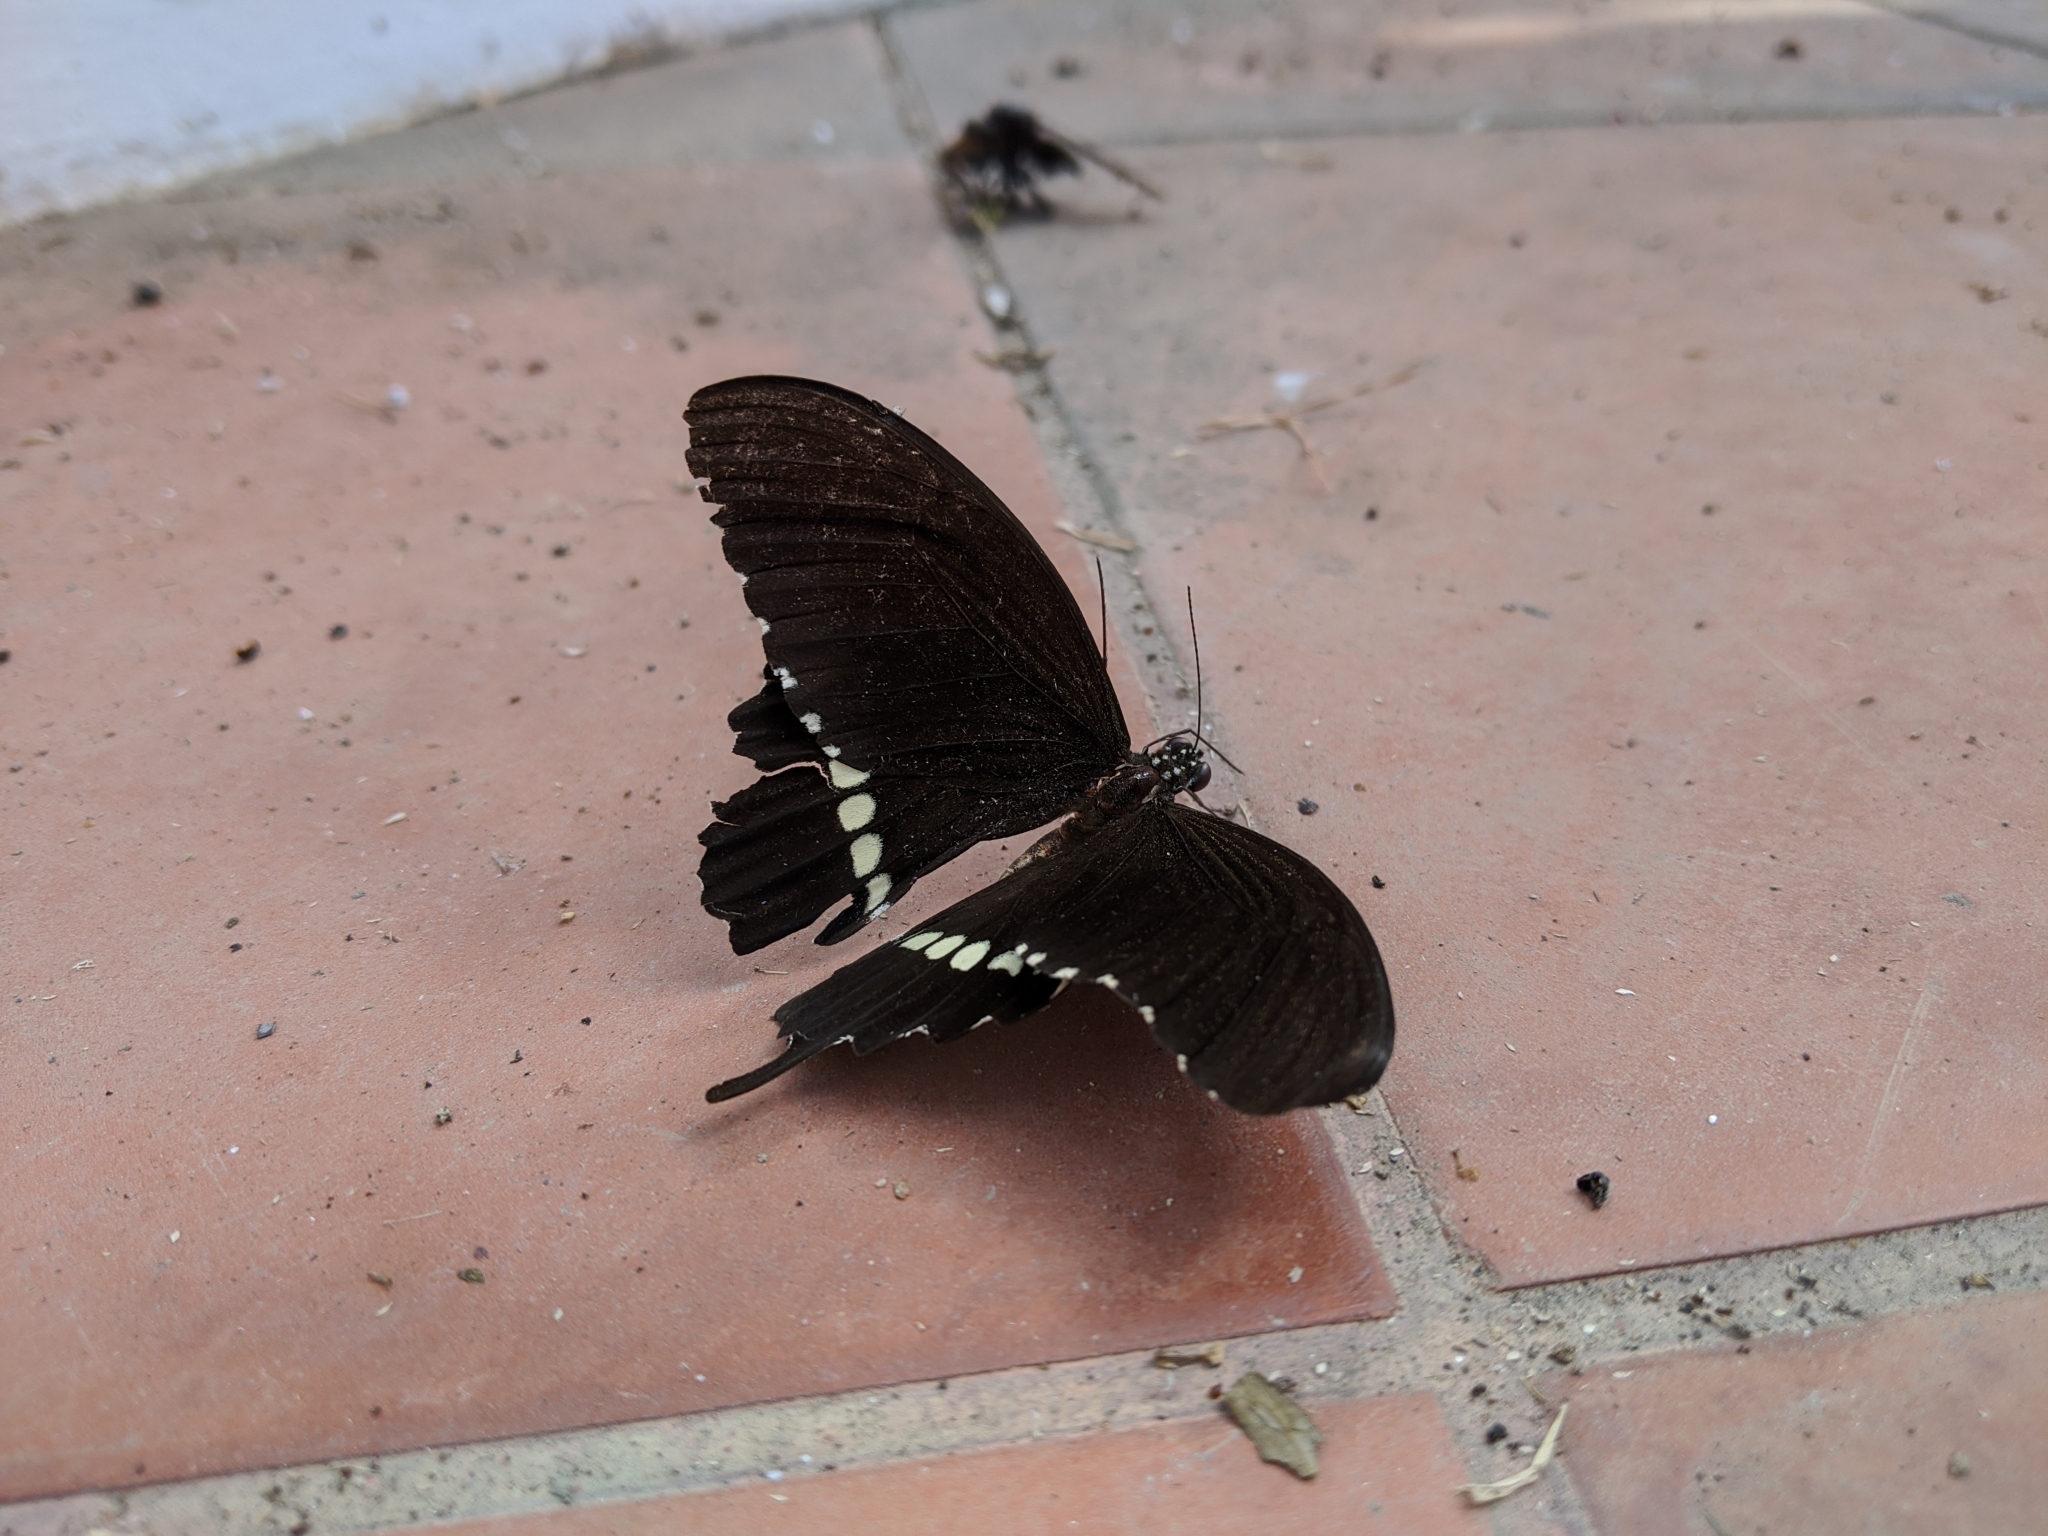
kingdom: Animalia
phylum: Arthropoda
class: Insecta
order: Lepidoptera
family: Papilionidae
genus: Papilio
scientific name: Papilio polytes
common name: Common mormon
